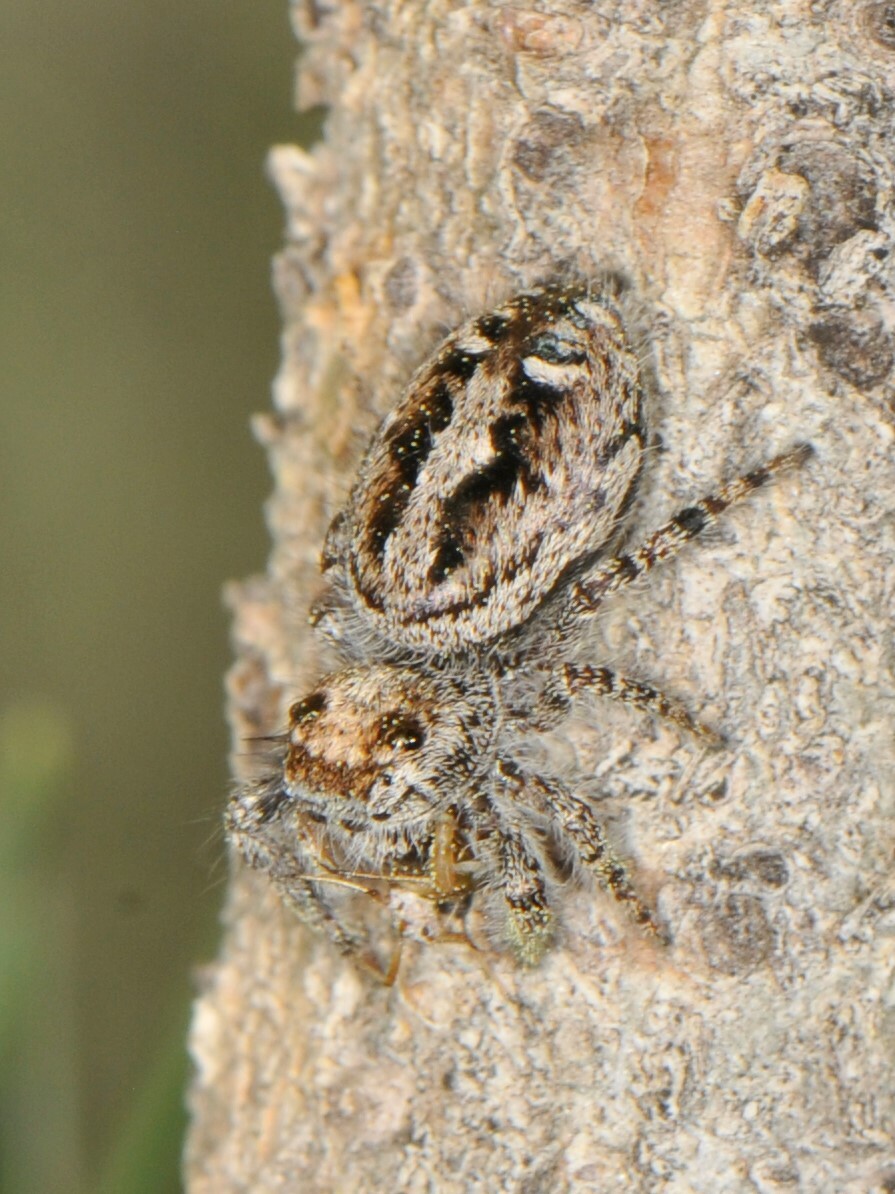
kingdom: Animalia
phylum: Arthropoda
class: Arachnida
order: Araneae
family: Salticidae
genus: Phidippus
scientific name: Phidippus comatus
